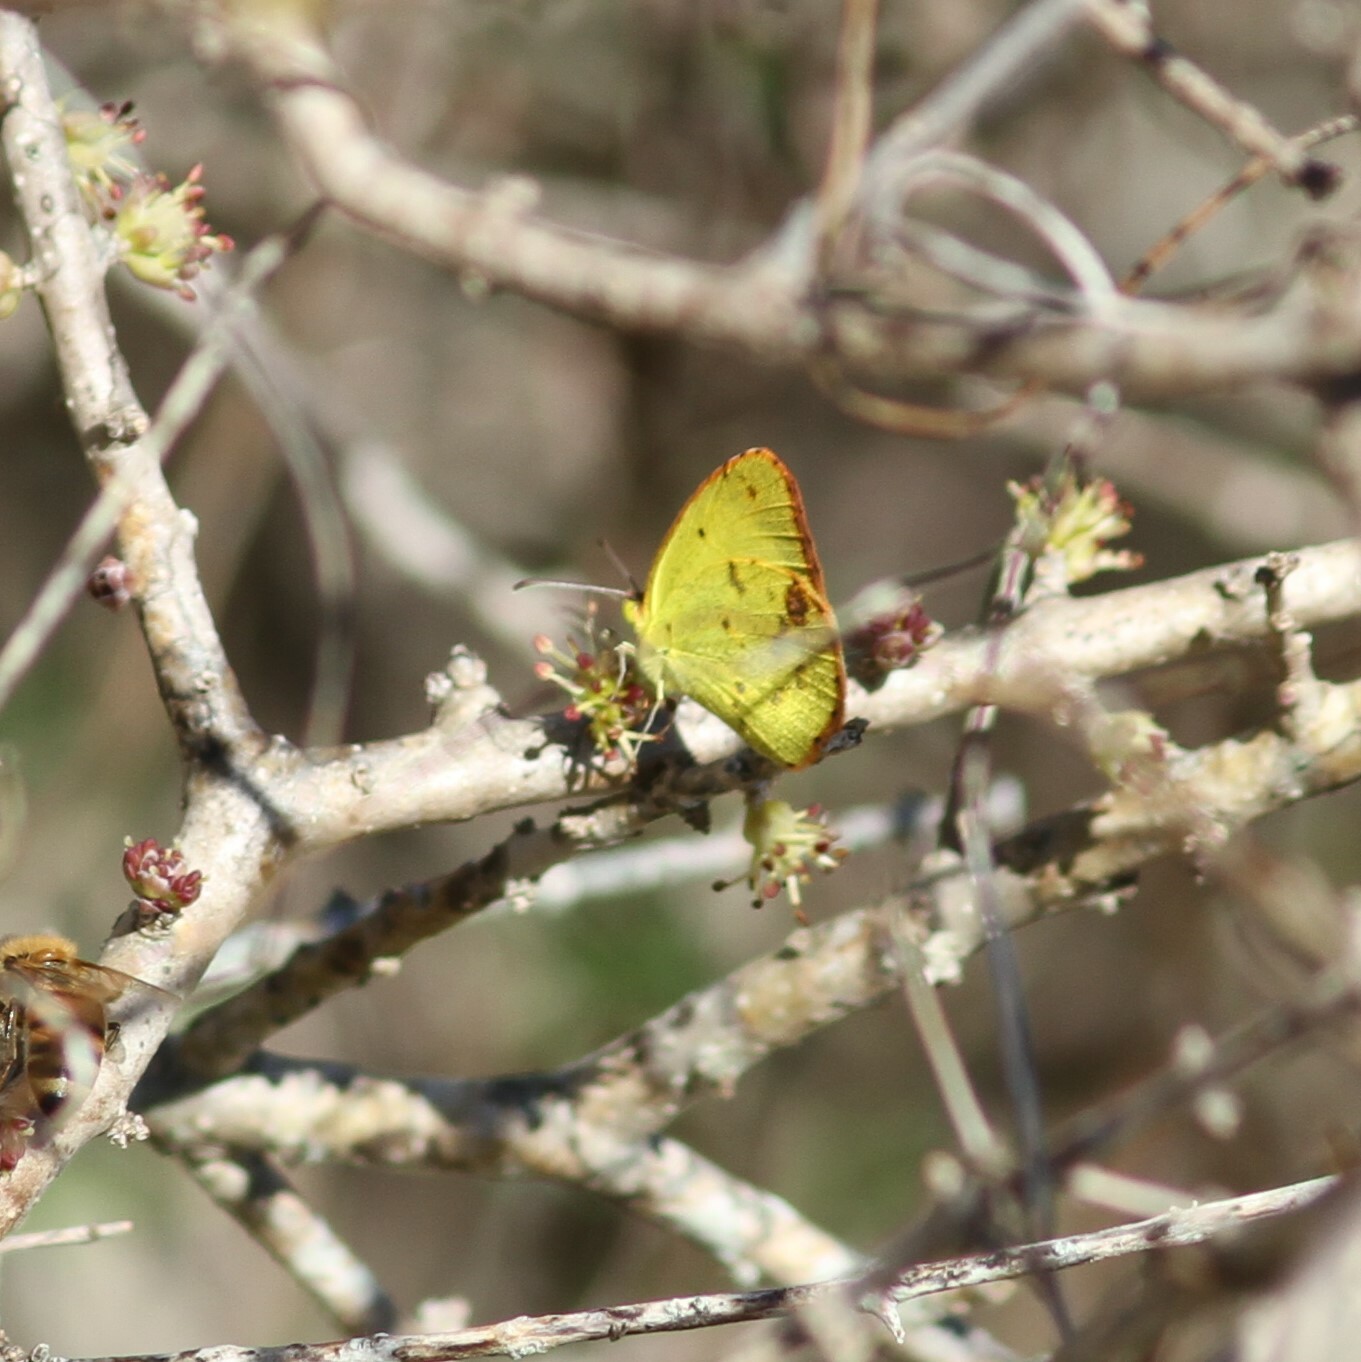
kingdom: Animalia
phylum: Arthropoda
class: Insecta
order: Lepidoptera
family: Pieridae
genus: Pyrisitia
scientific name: Pyrisitia lisa
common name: Little yellow
